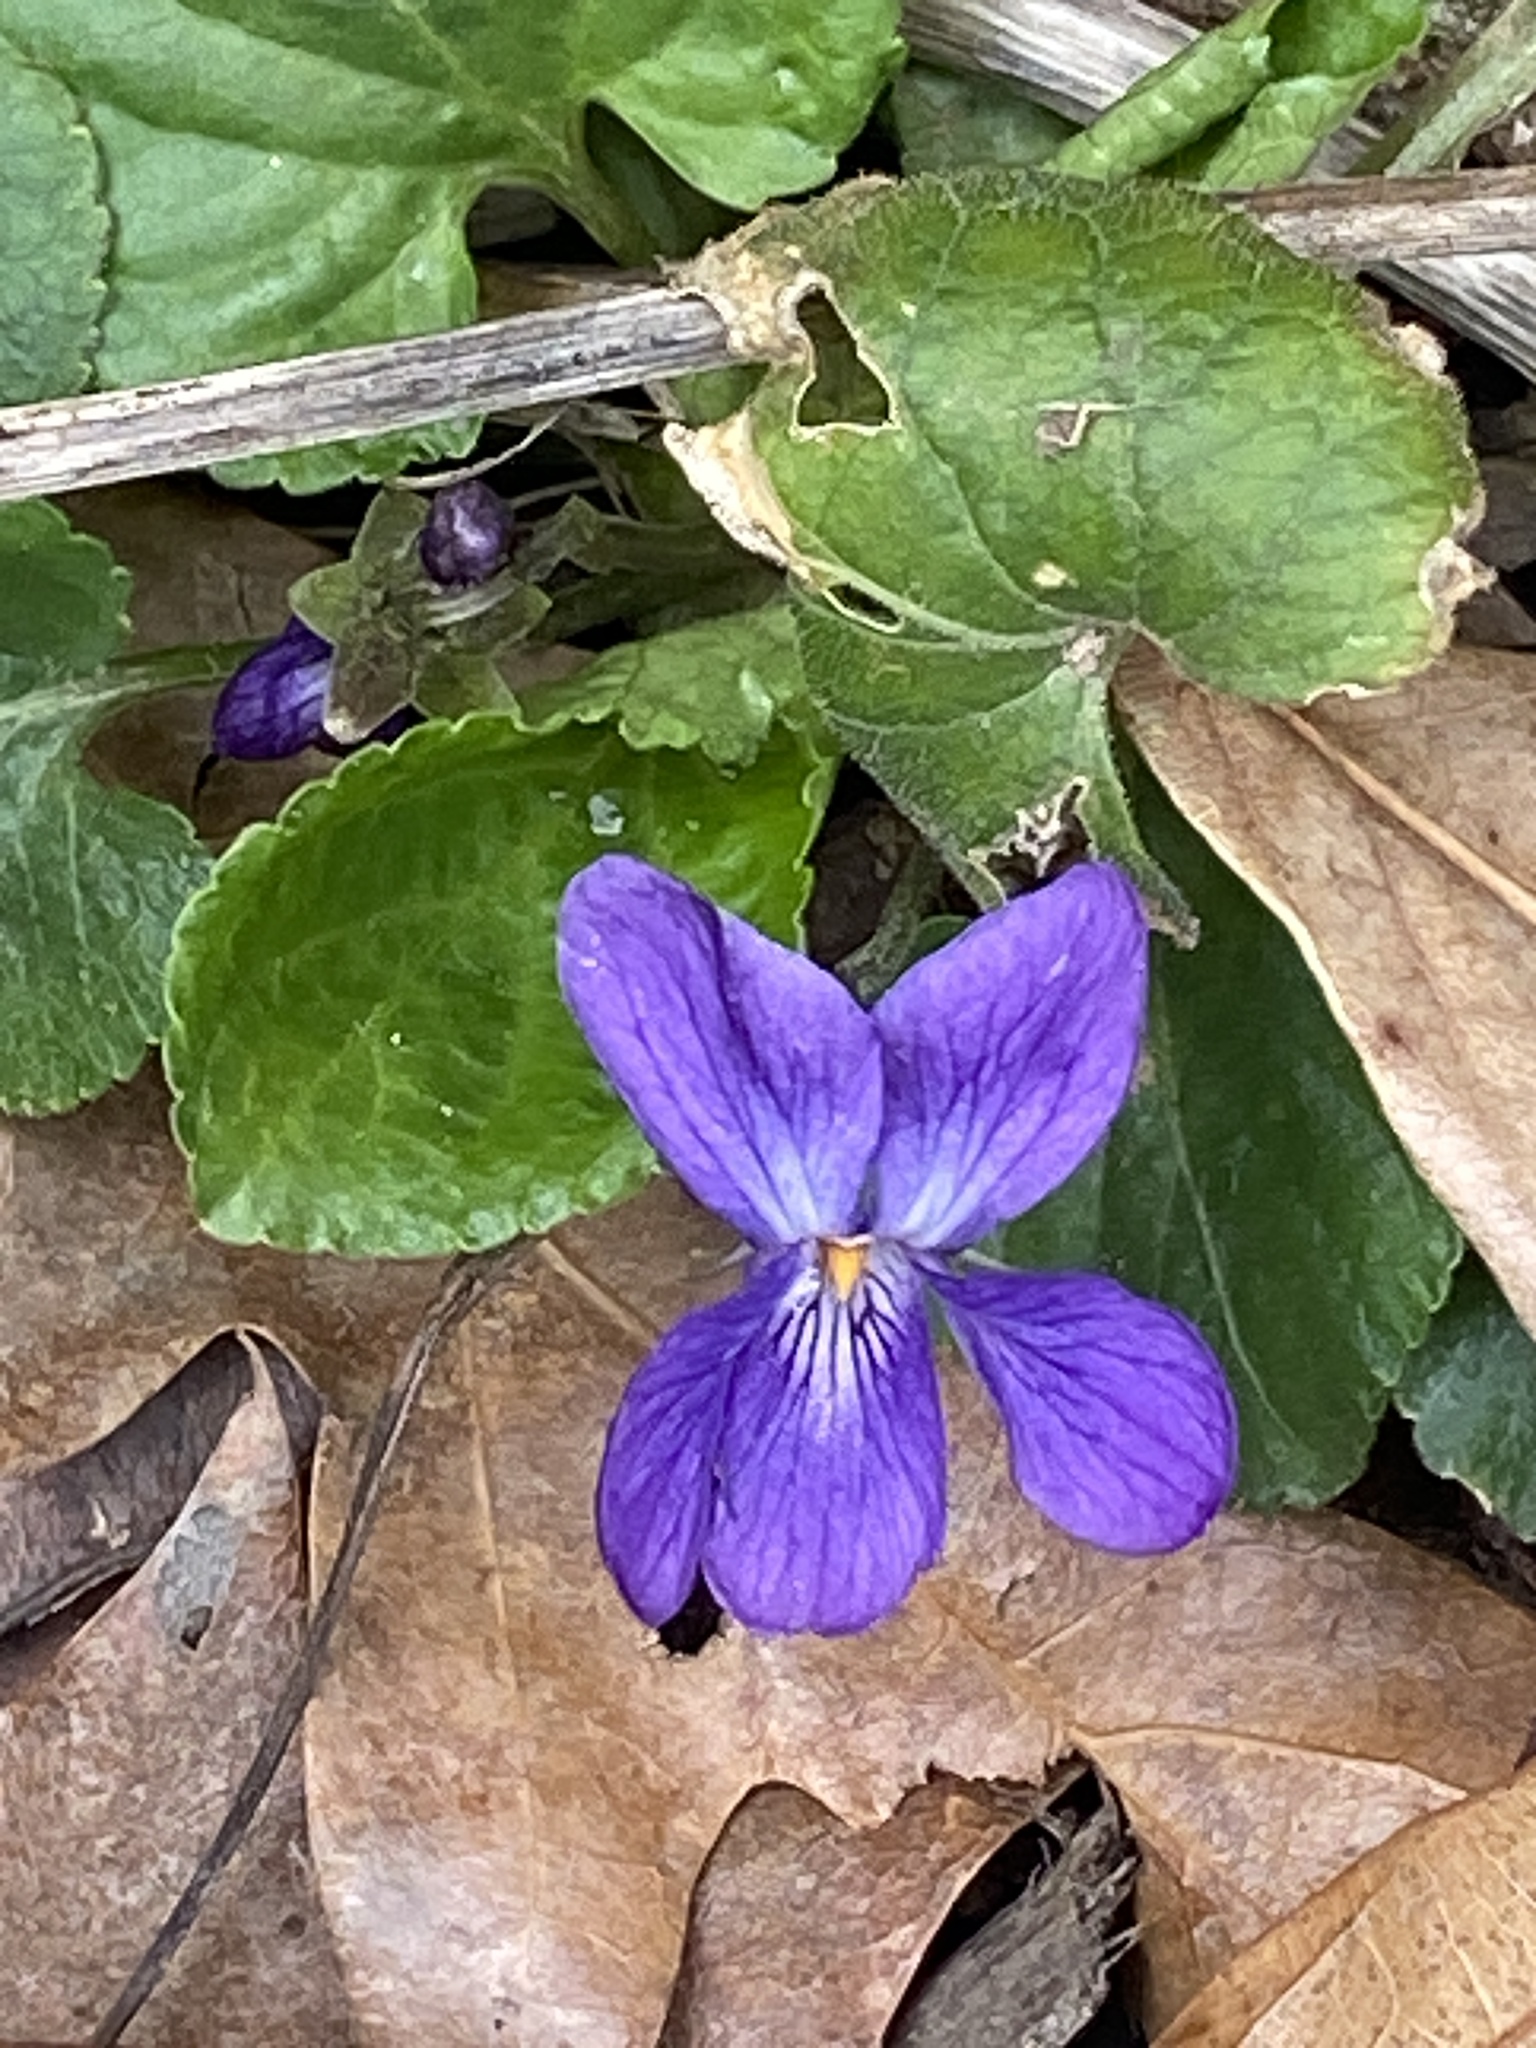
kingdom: Plantae
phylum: Tracheophyta
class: Magnoliopsida
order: Malpighiales
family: Violaceae
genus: Viola
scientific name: Viola odorata
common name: Sweet violet
